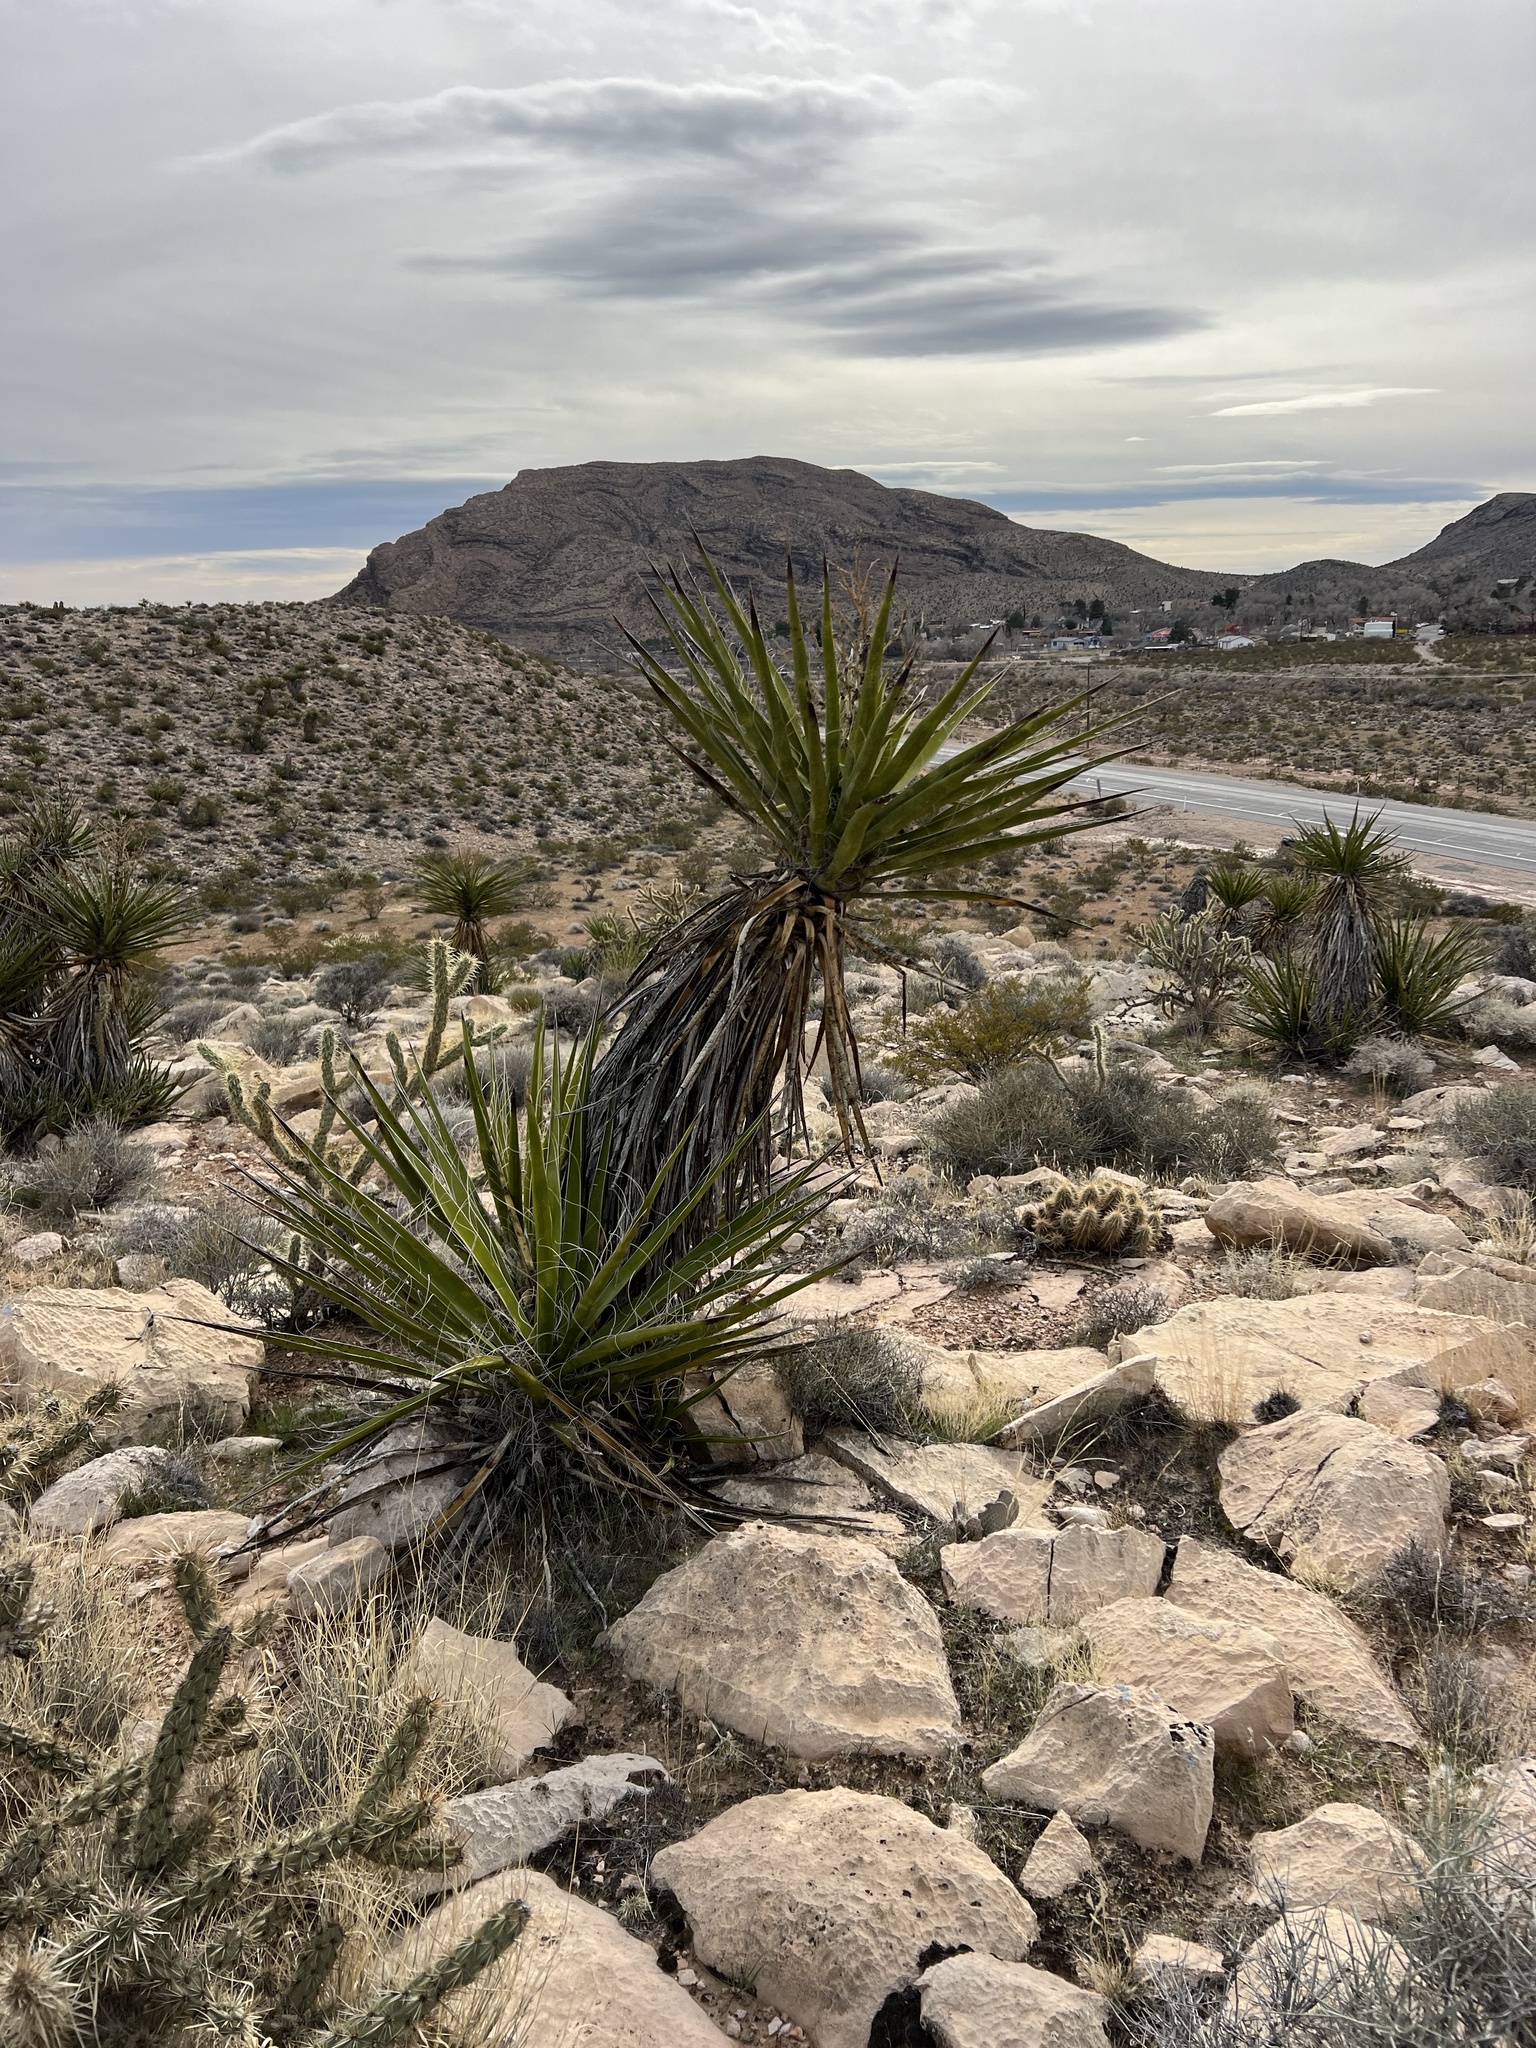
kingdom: Plantae
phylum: Tracheophyta
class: Liliopsida
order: Asparagales
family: Asparagaceae
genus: Yucca
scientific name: Yucca schidigera
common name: Mojave yucca
